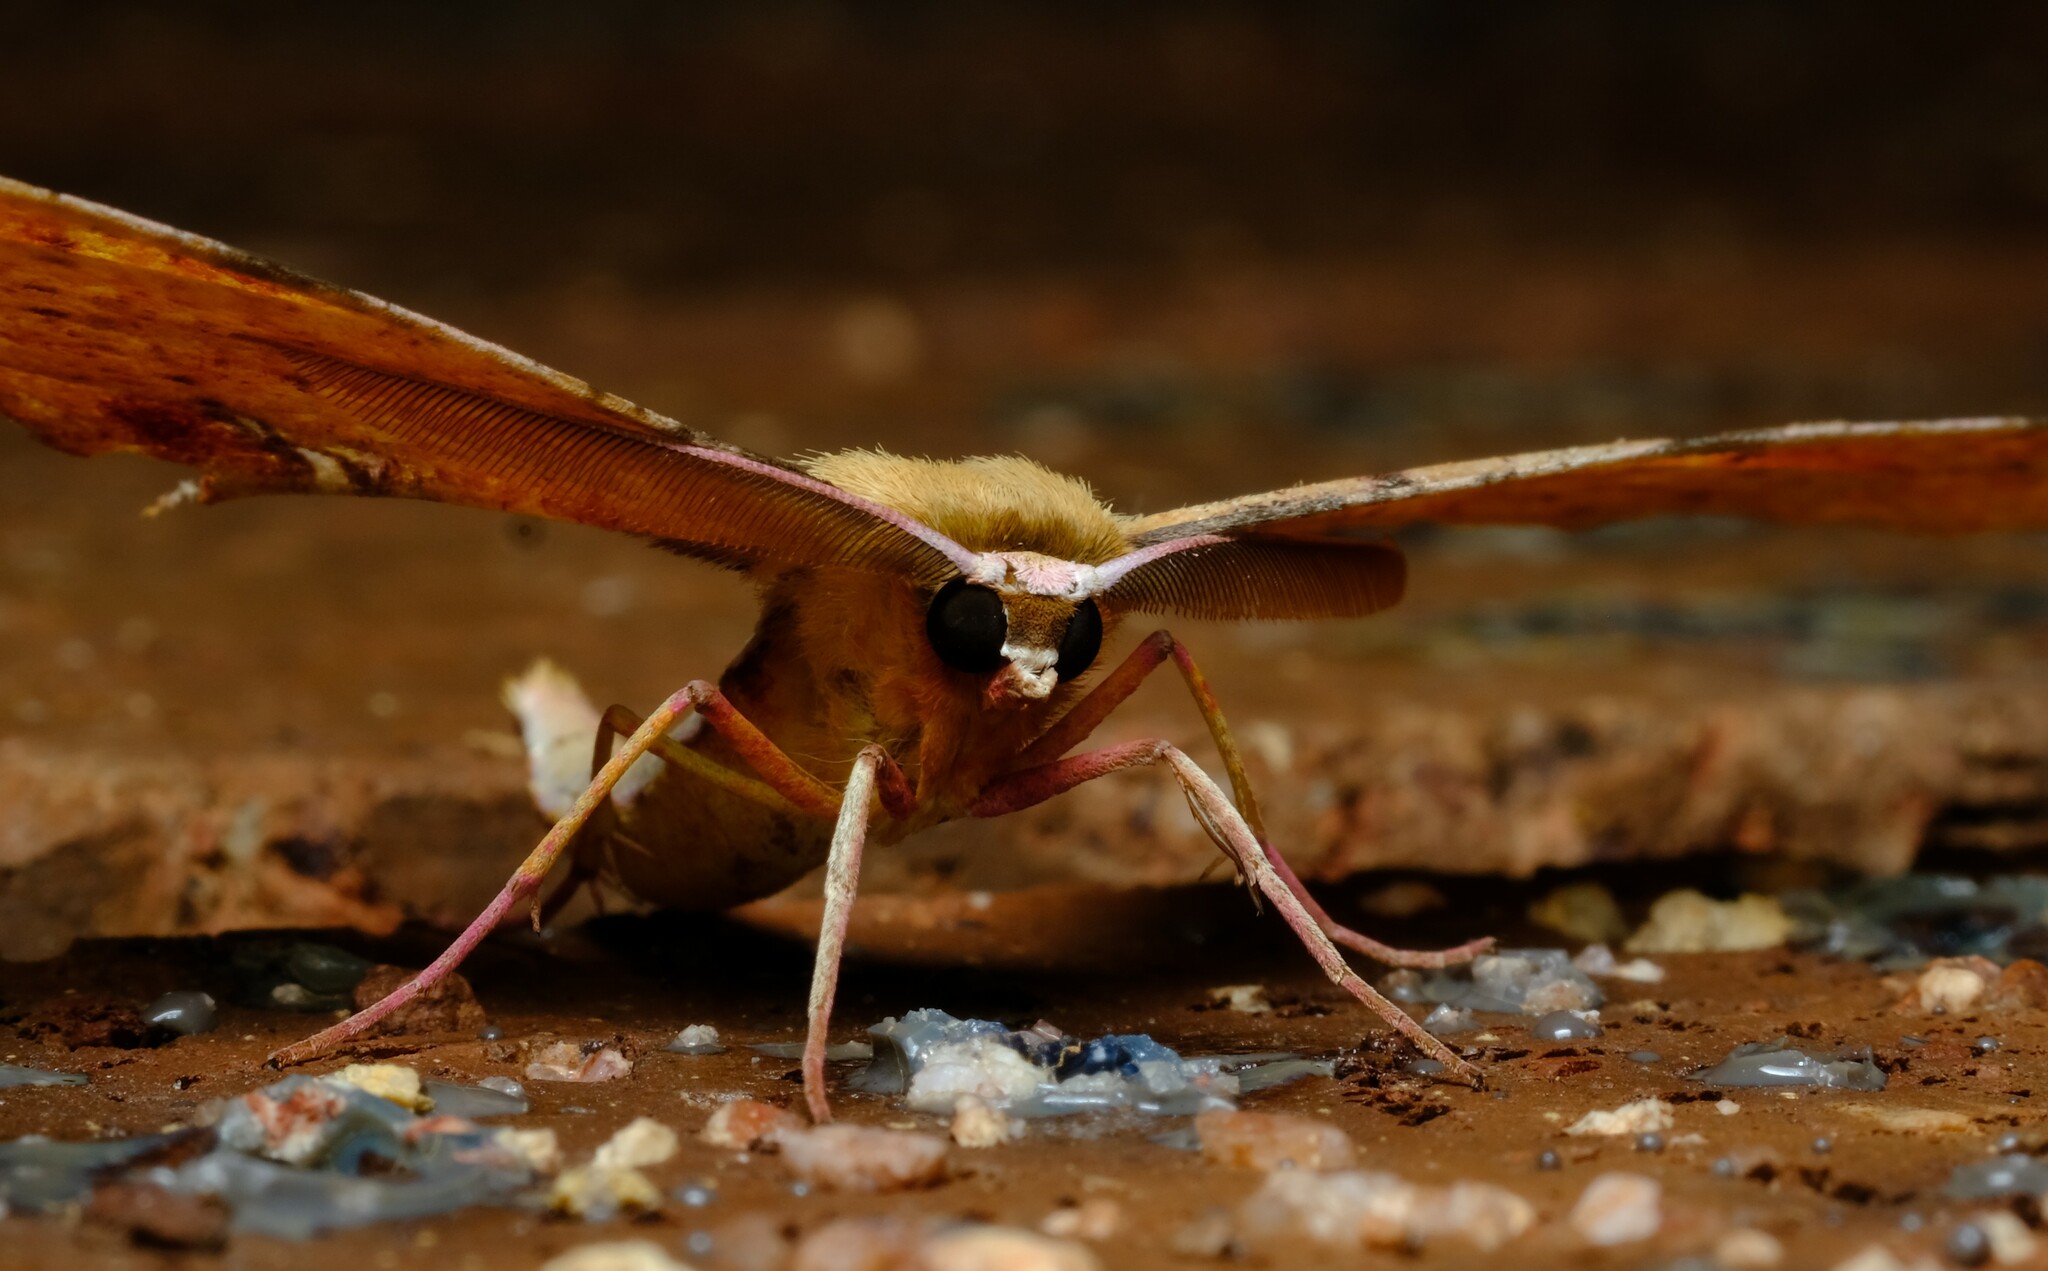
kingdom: Animalia
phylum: Arthropoda
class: Insecta
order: Lepidoptera
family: Geometridae
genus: Parepisparis
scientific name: Parepisparis lutosaria
